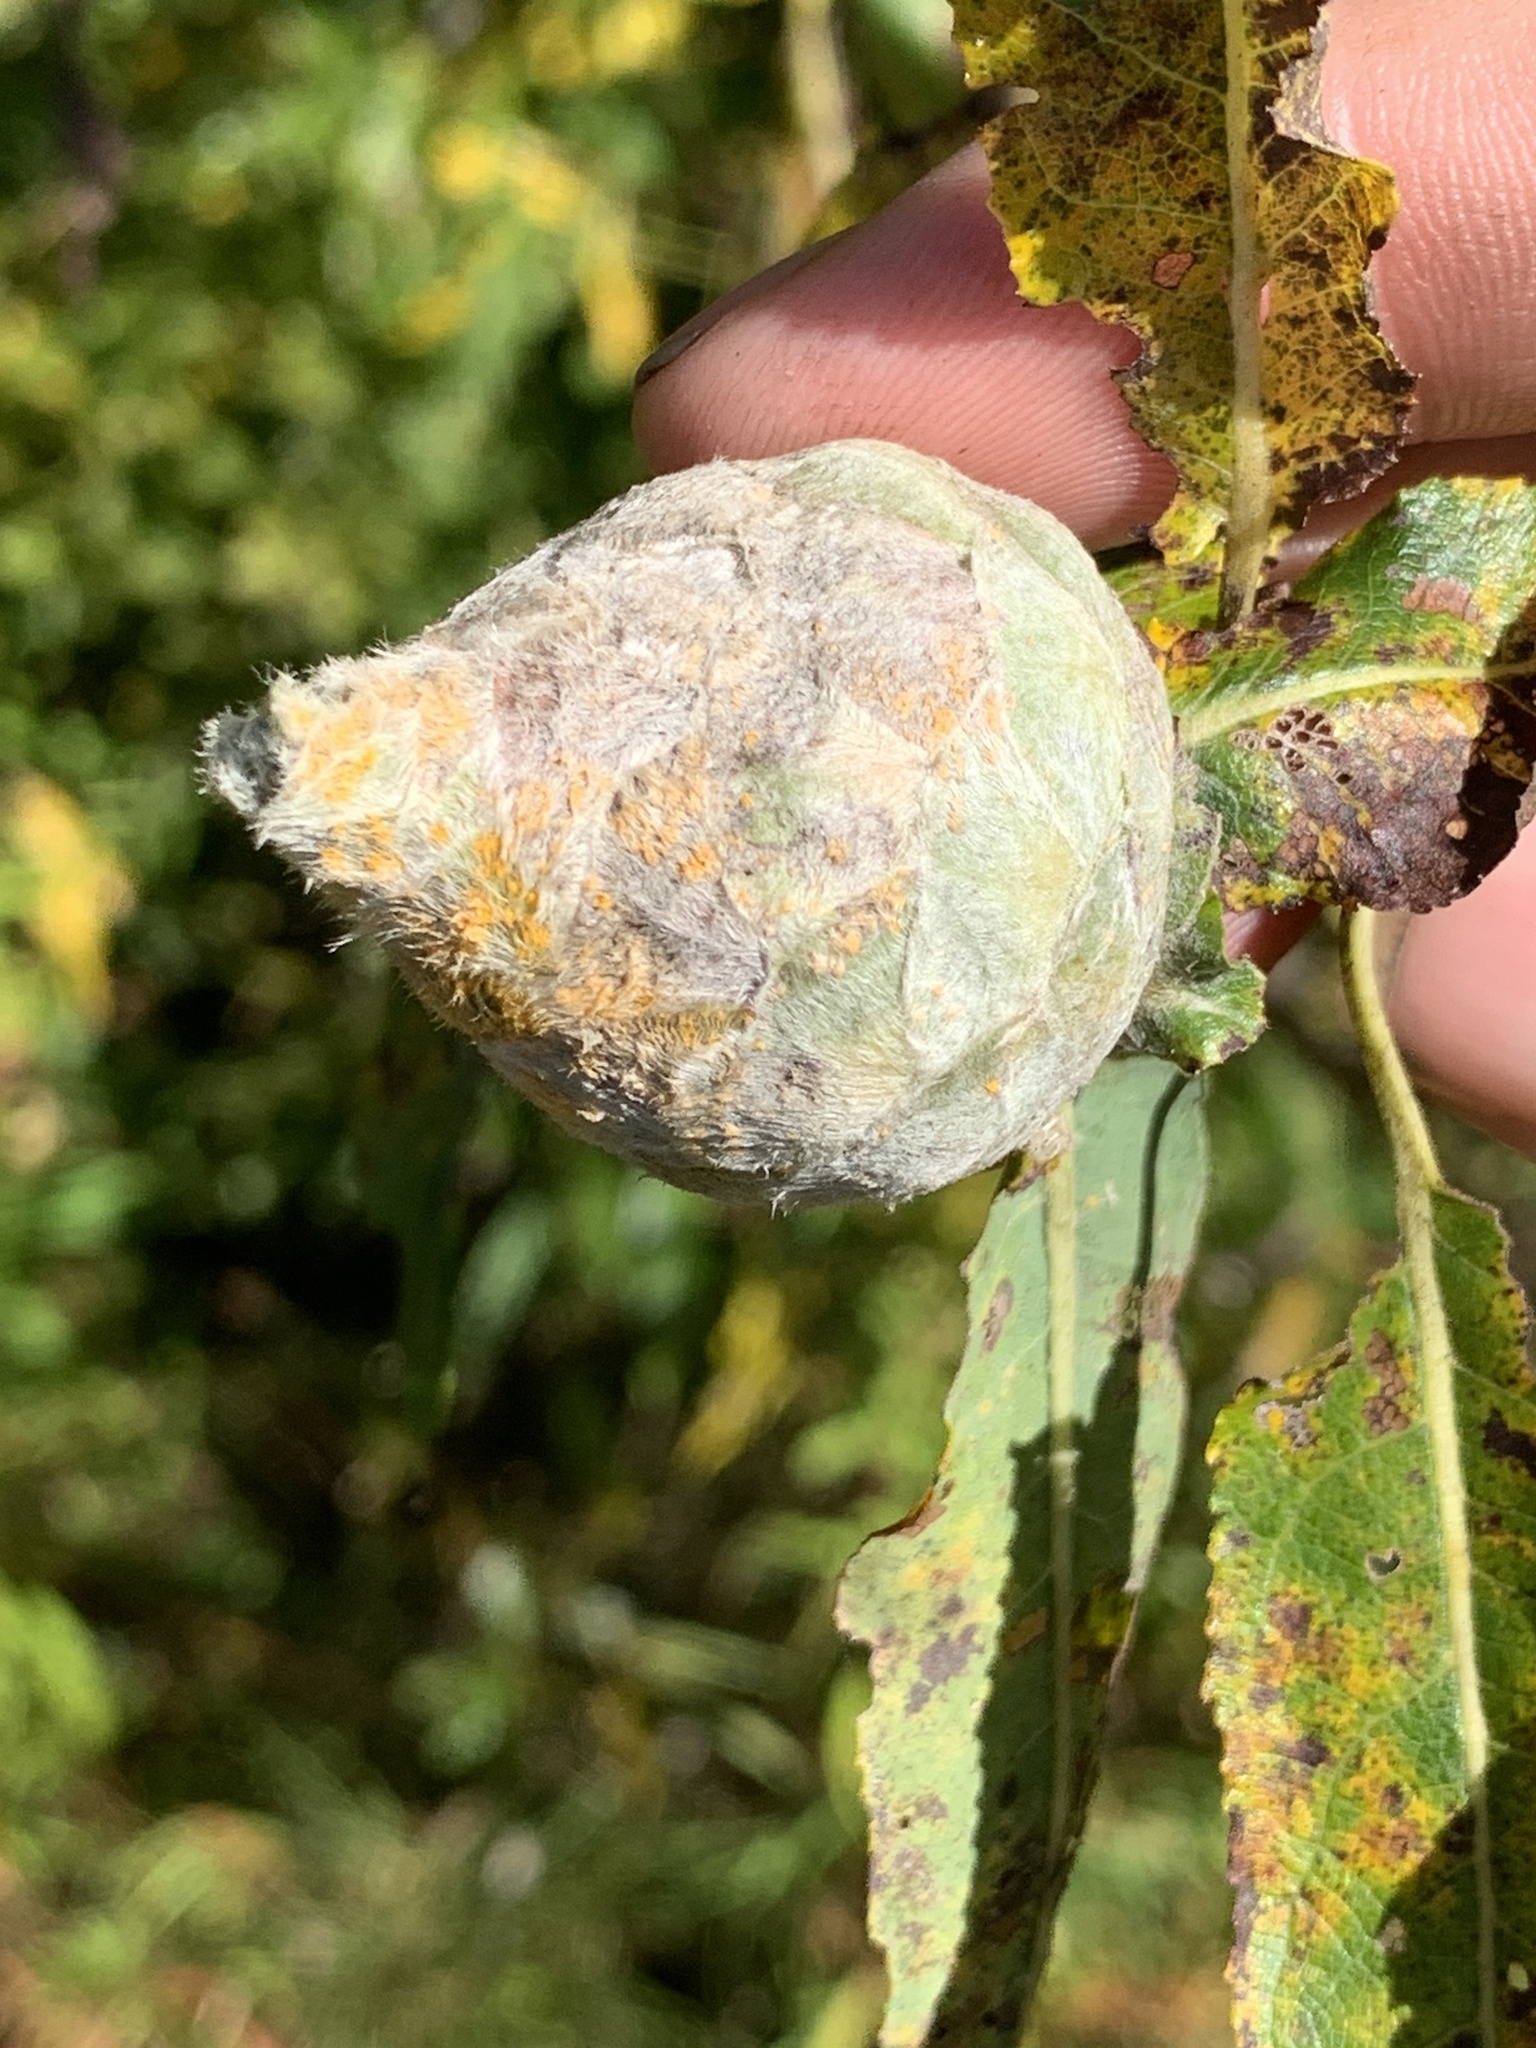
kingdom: Animalia
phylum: Arthropoda
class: Insecta
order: Diptera
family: Cecidomyiidae
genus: Rabdophaga
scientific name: Rabdophaga strobiloides
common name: Willow pinecone gall midge
